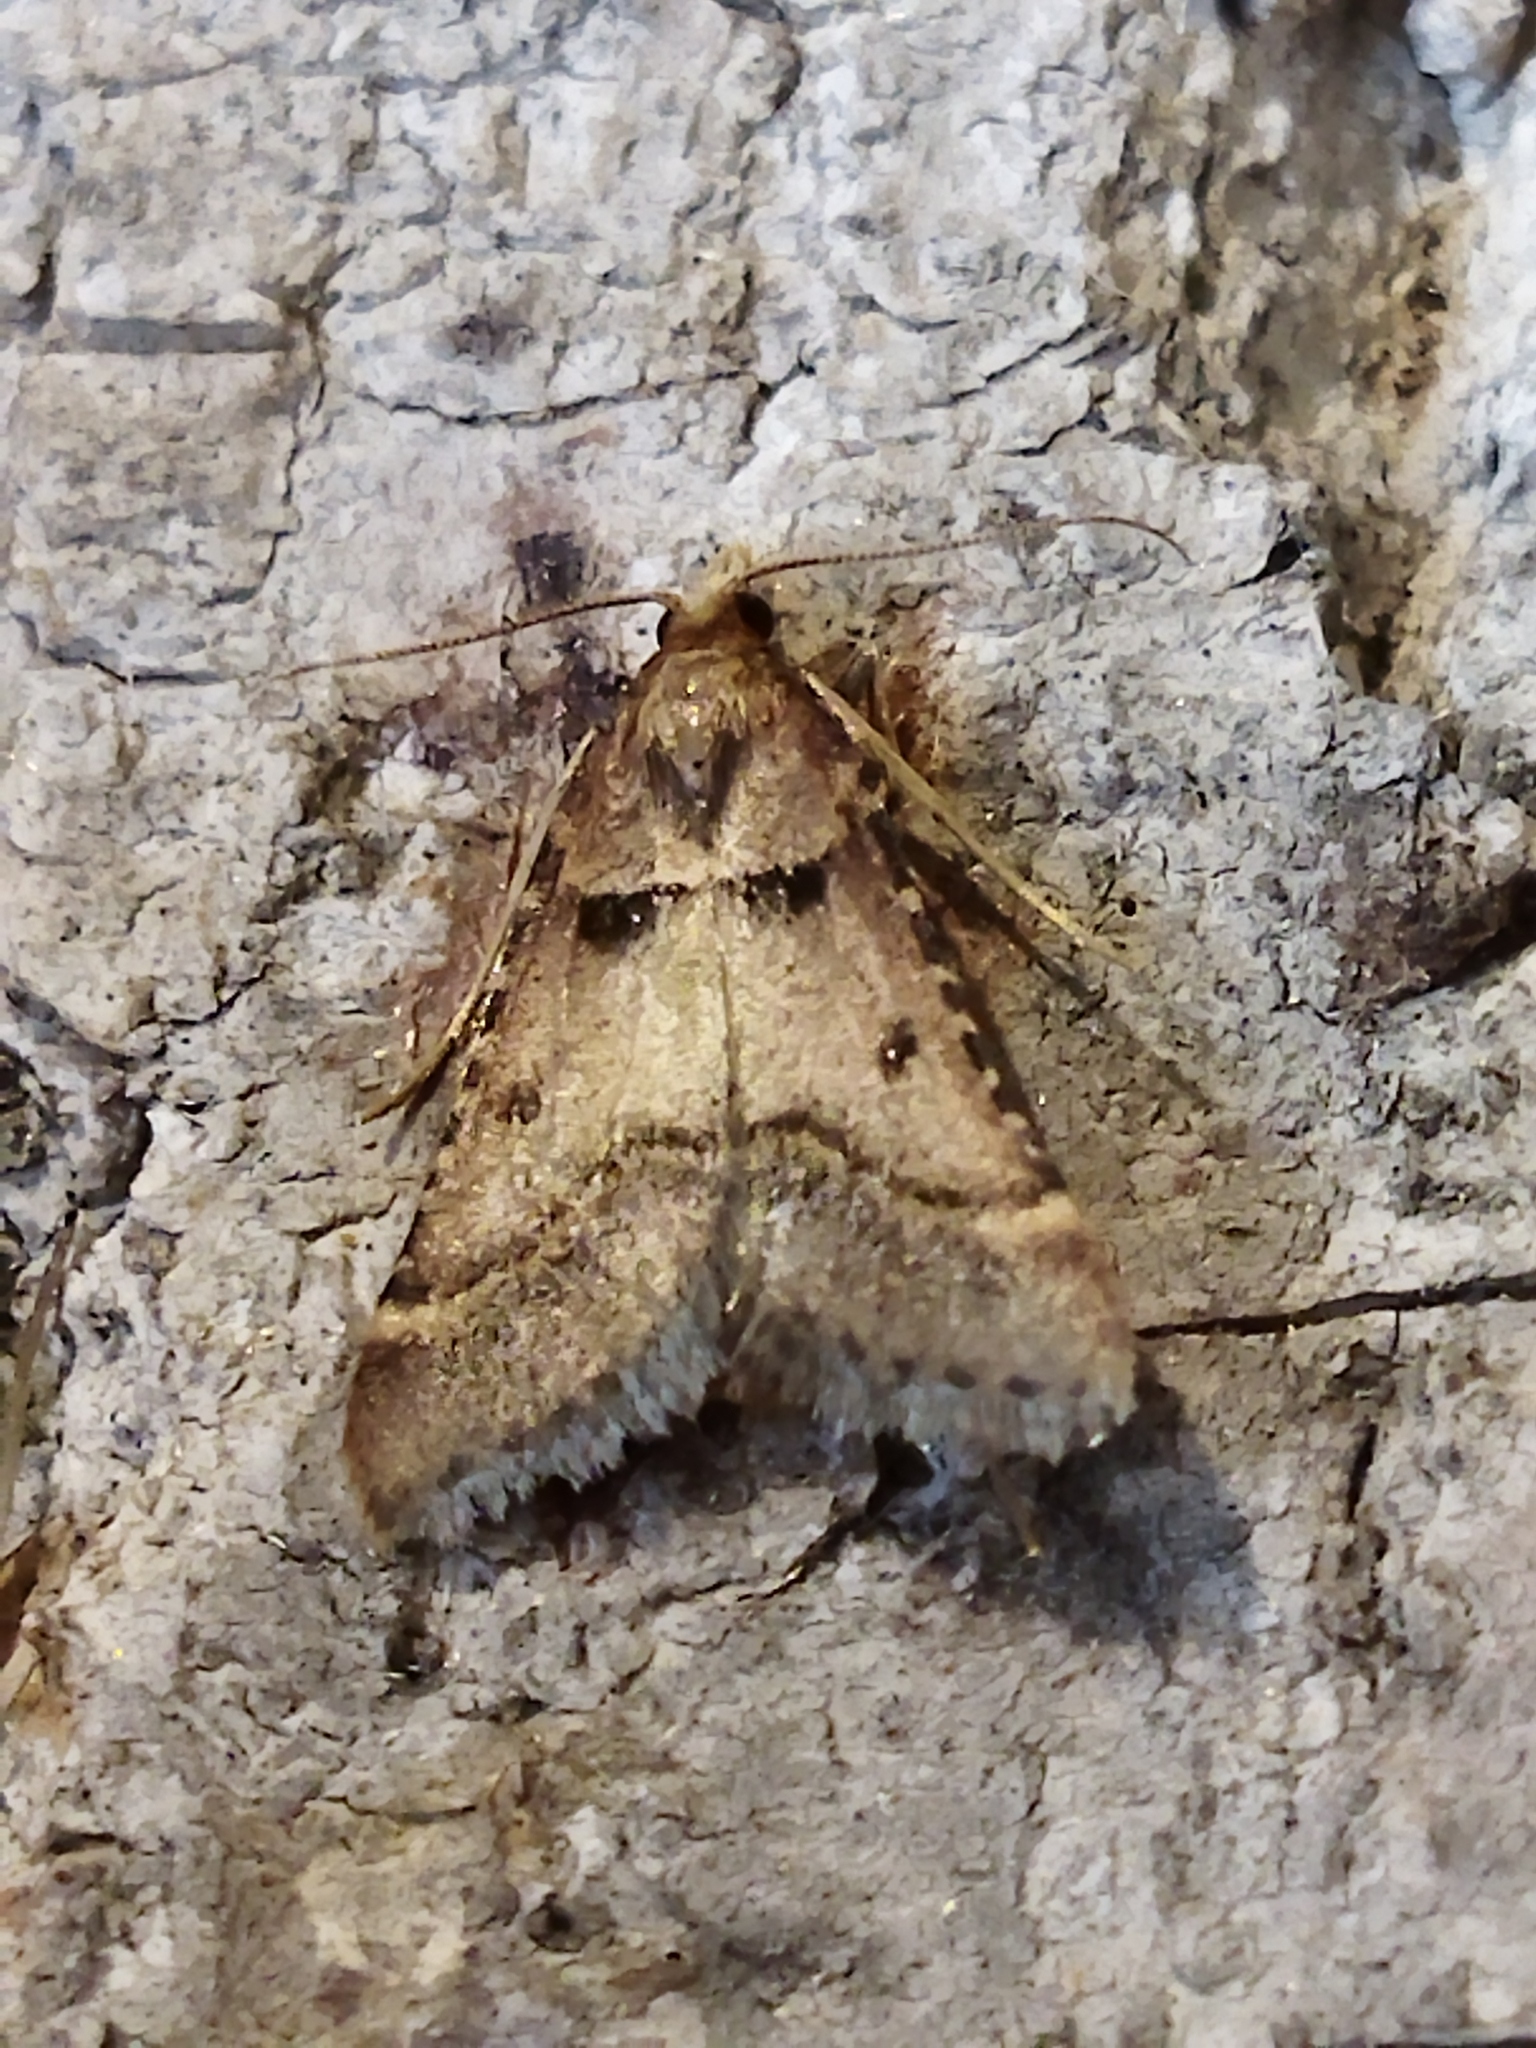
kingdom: Animalia
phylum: Arthropoda
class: Insecta
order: Lepidoptera
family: Pyralidae
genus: Stemmatophora
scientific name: Stemmatophora brunnealis
